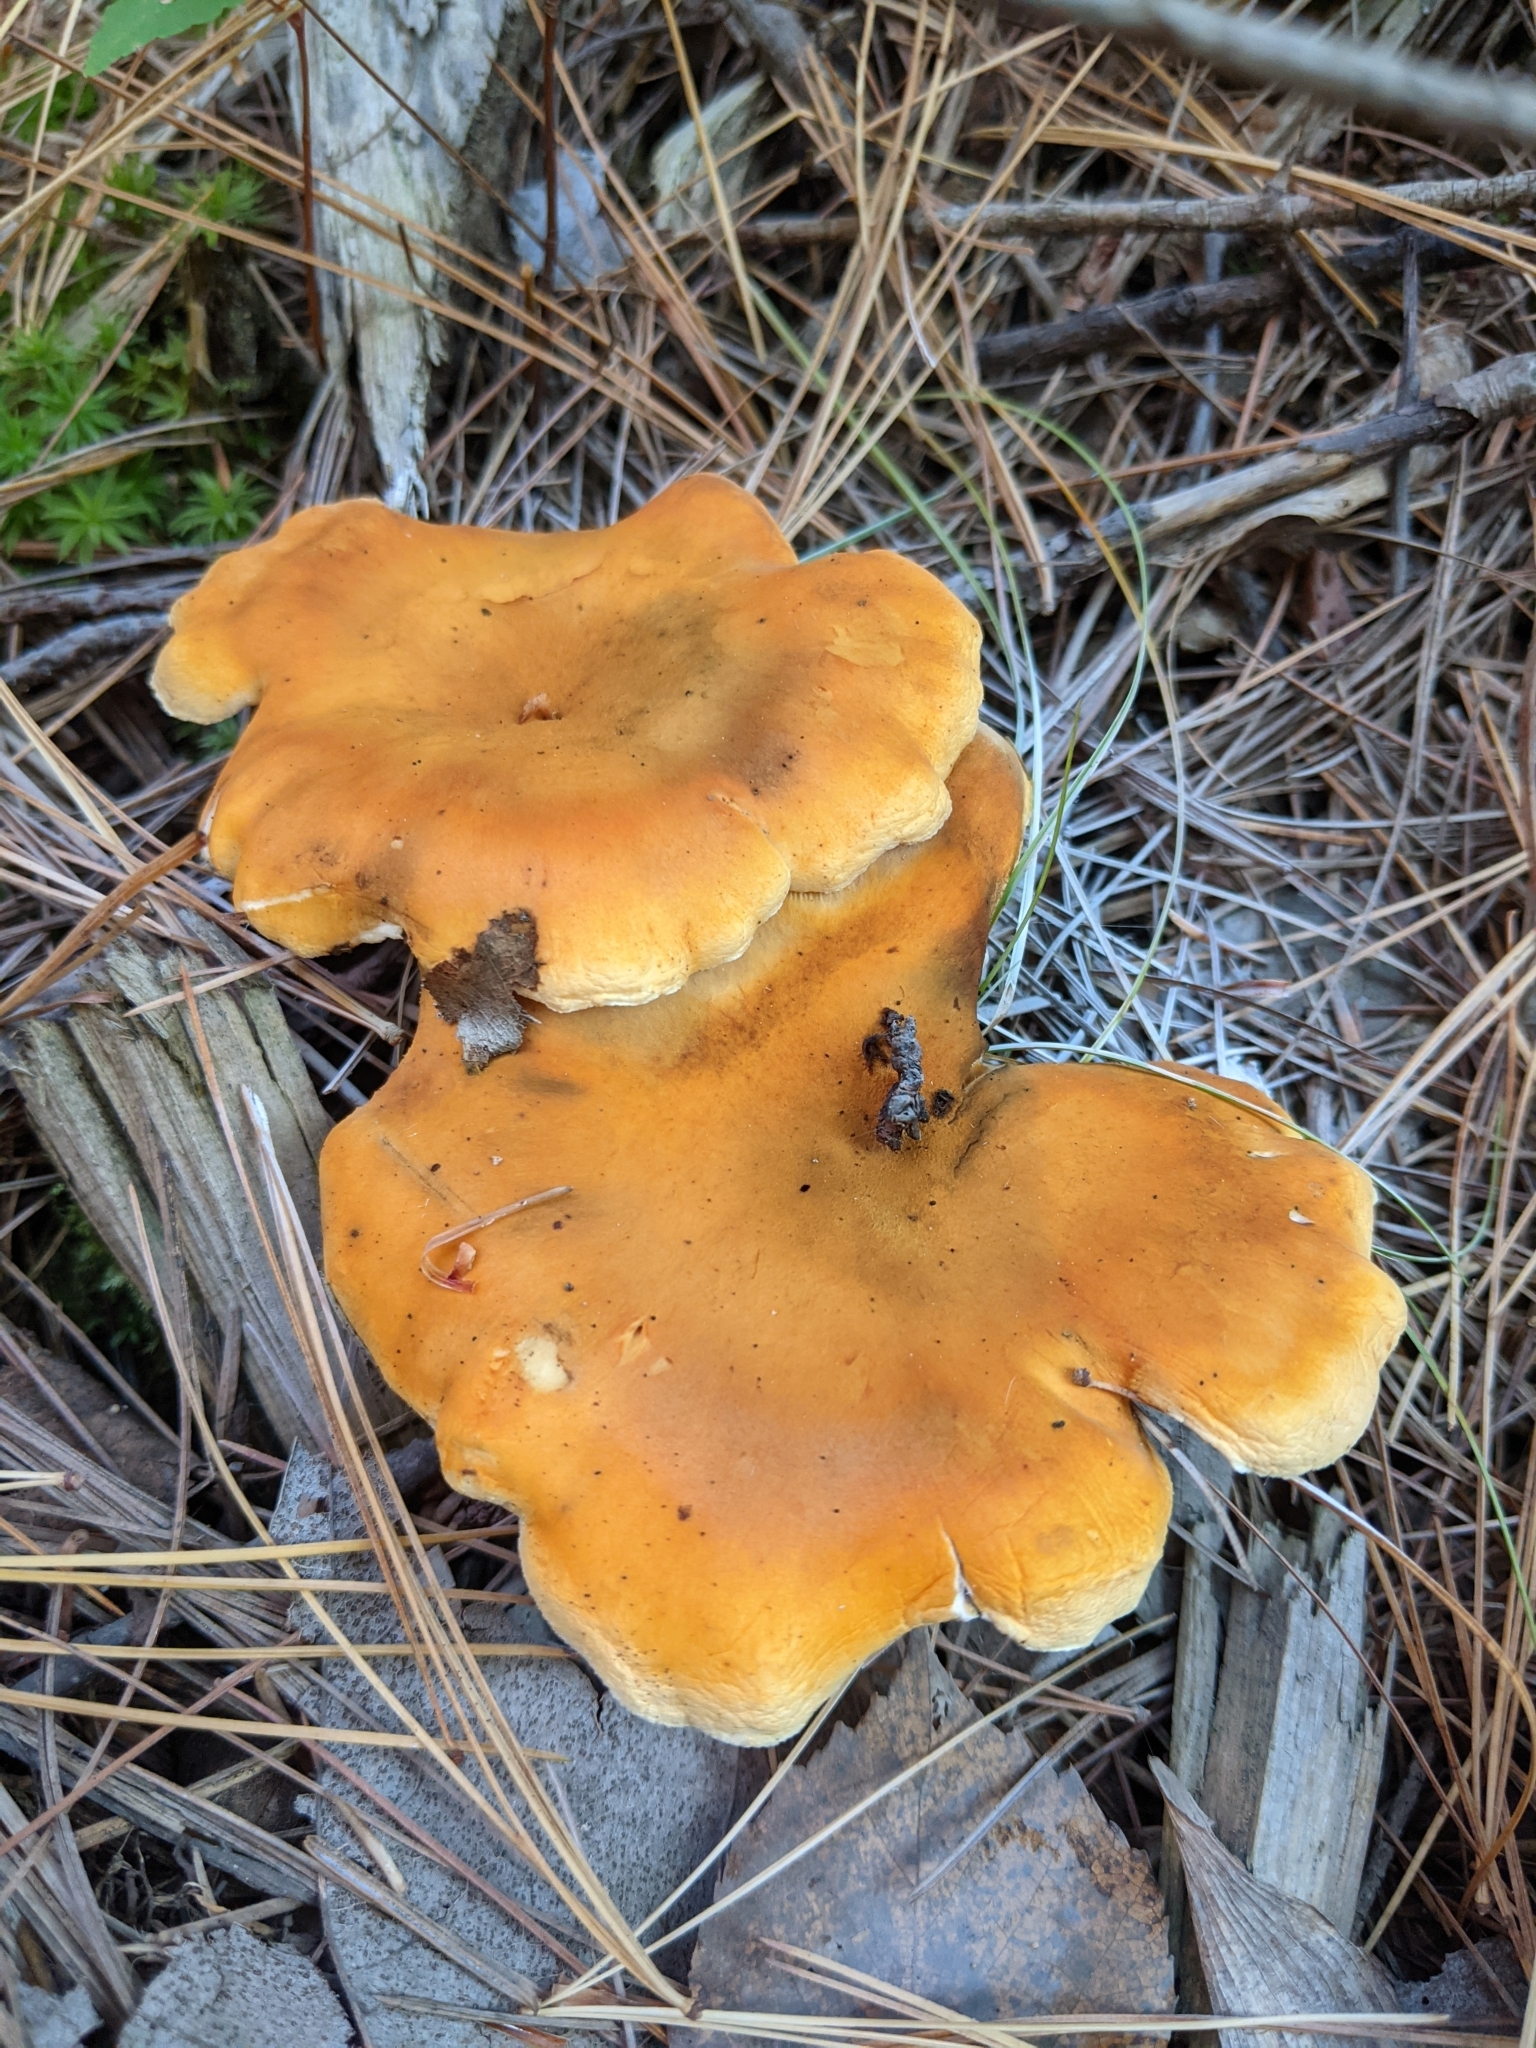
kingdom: Fungi
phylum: Basidiomycota
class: Agaricomycetes
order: Boletales
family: Hygrophoropsidaceae
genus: Hygrophoropsis
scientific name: Hygrophoropsis aurantiaca
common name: False chanterelle
